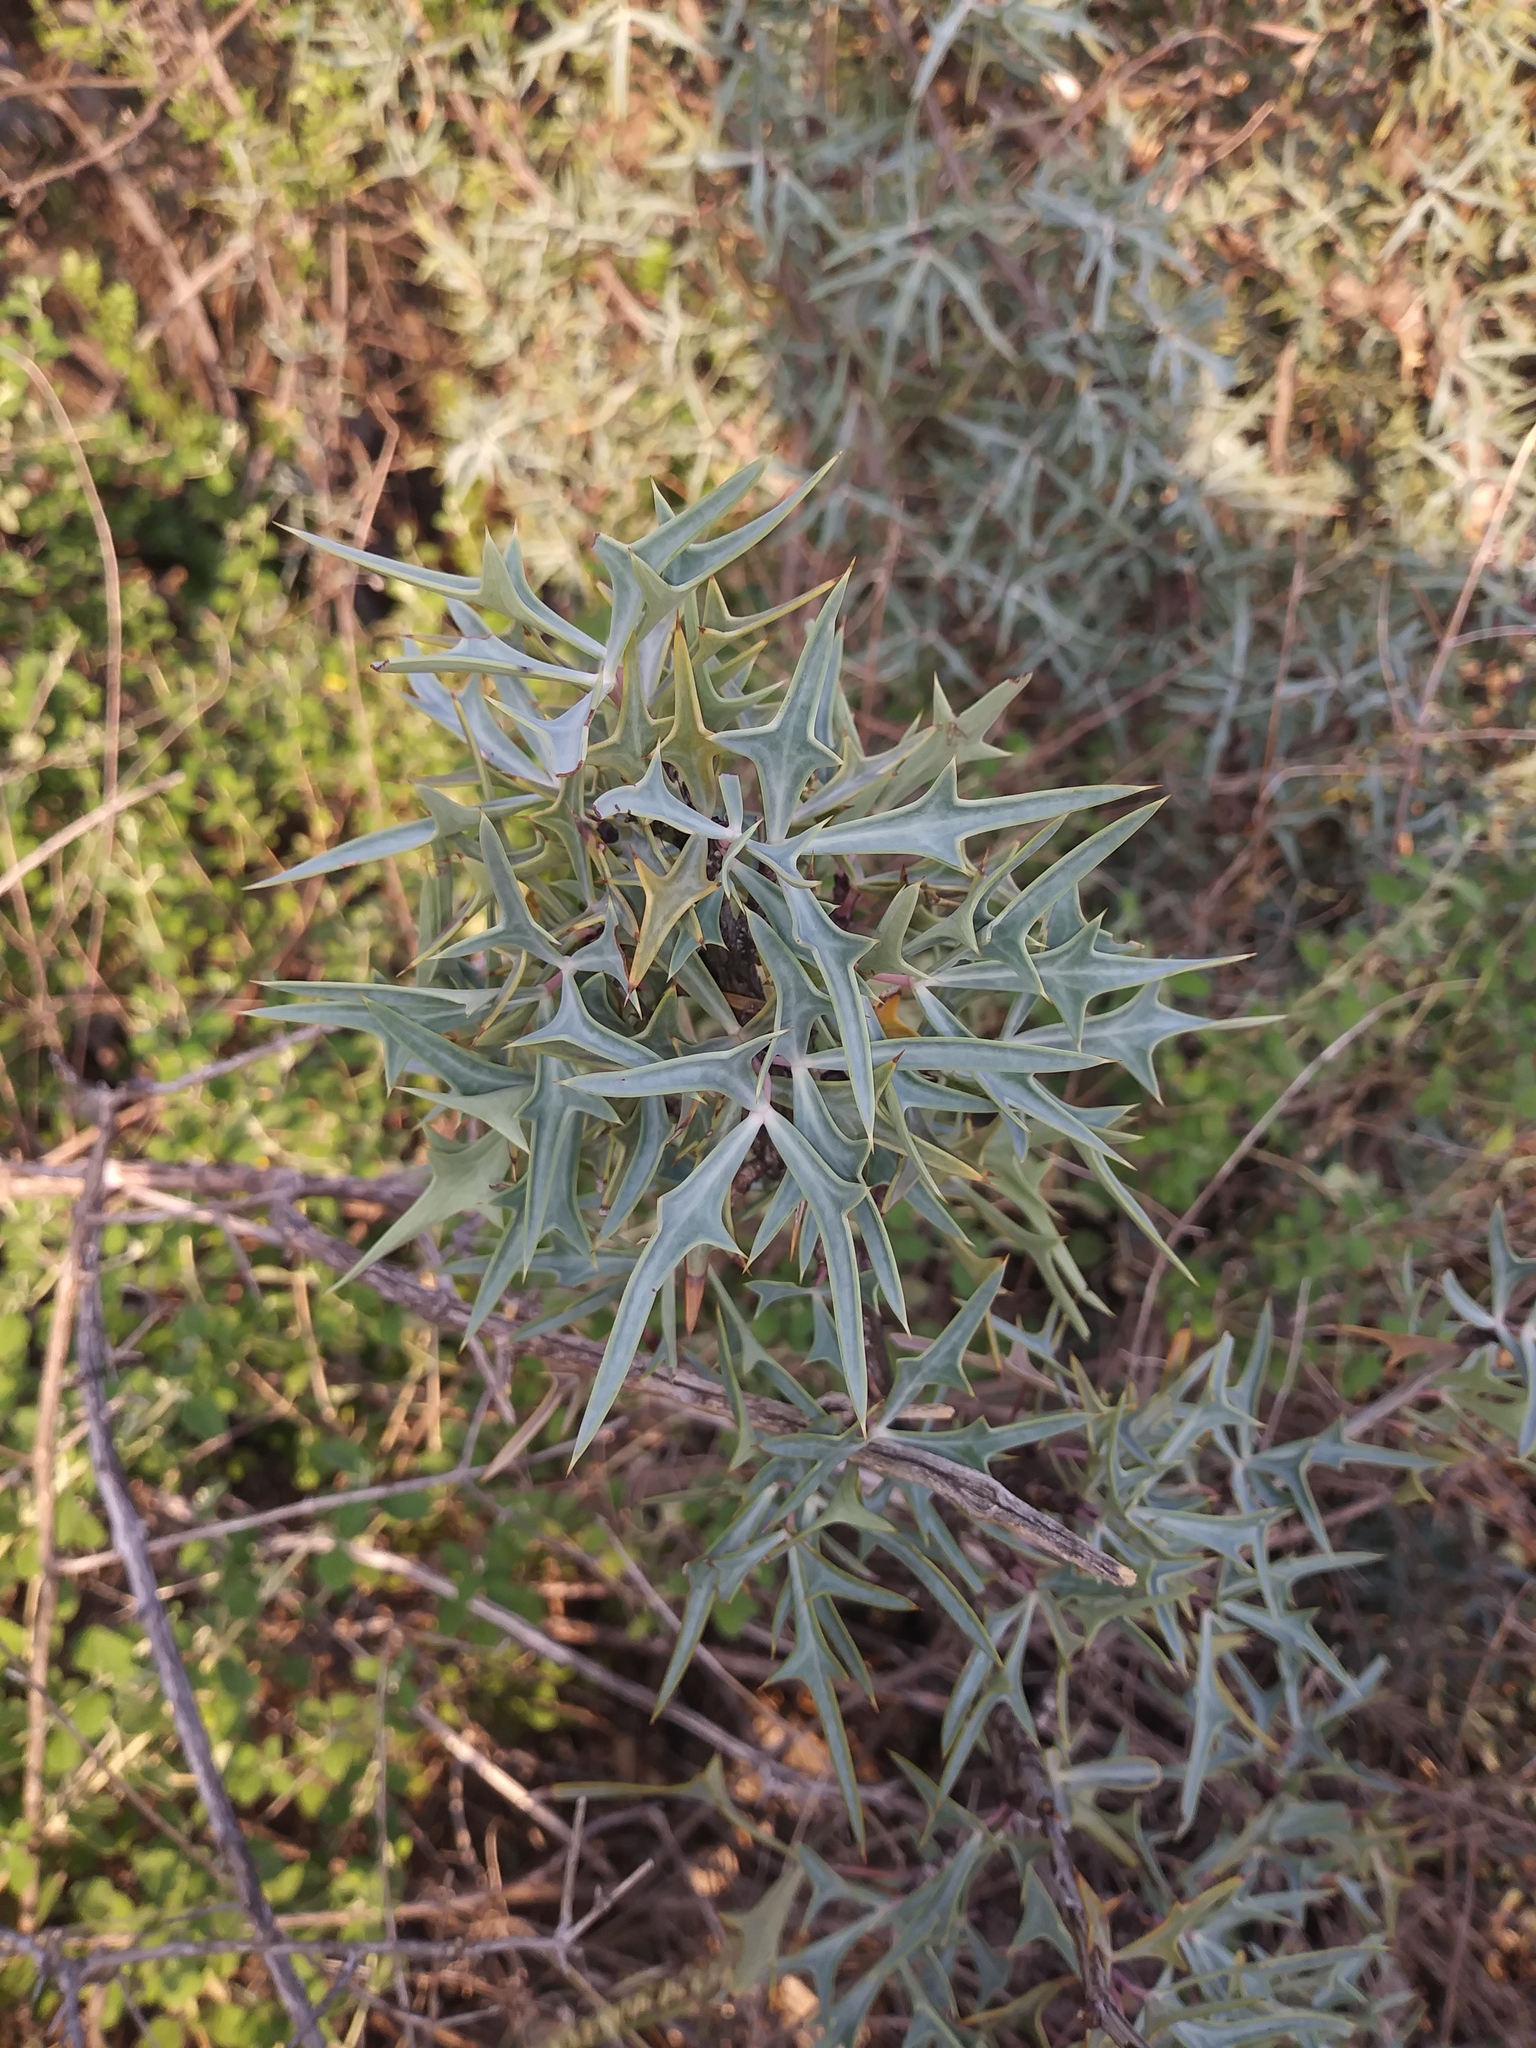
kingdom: Plantae
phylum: Tracheophyta
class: Magnoliopsida
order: Ranunculales
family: Berberidaceae
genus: Alloberberis
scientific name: Alloberberis trifoliolata
